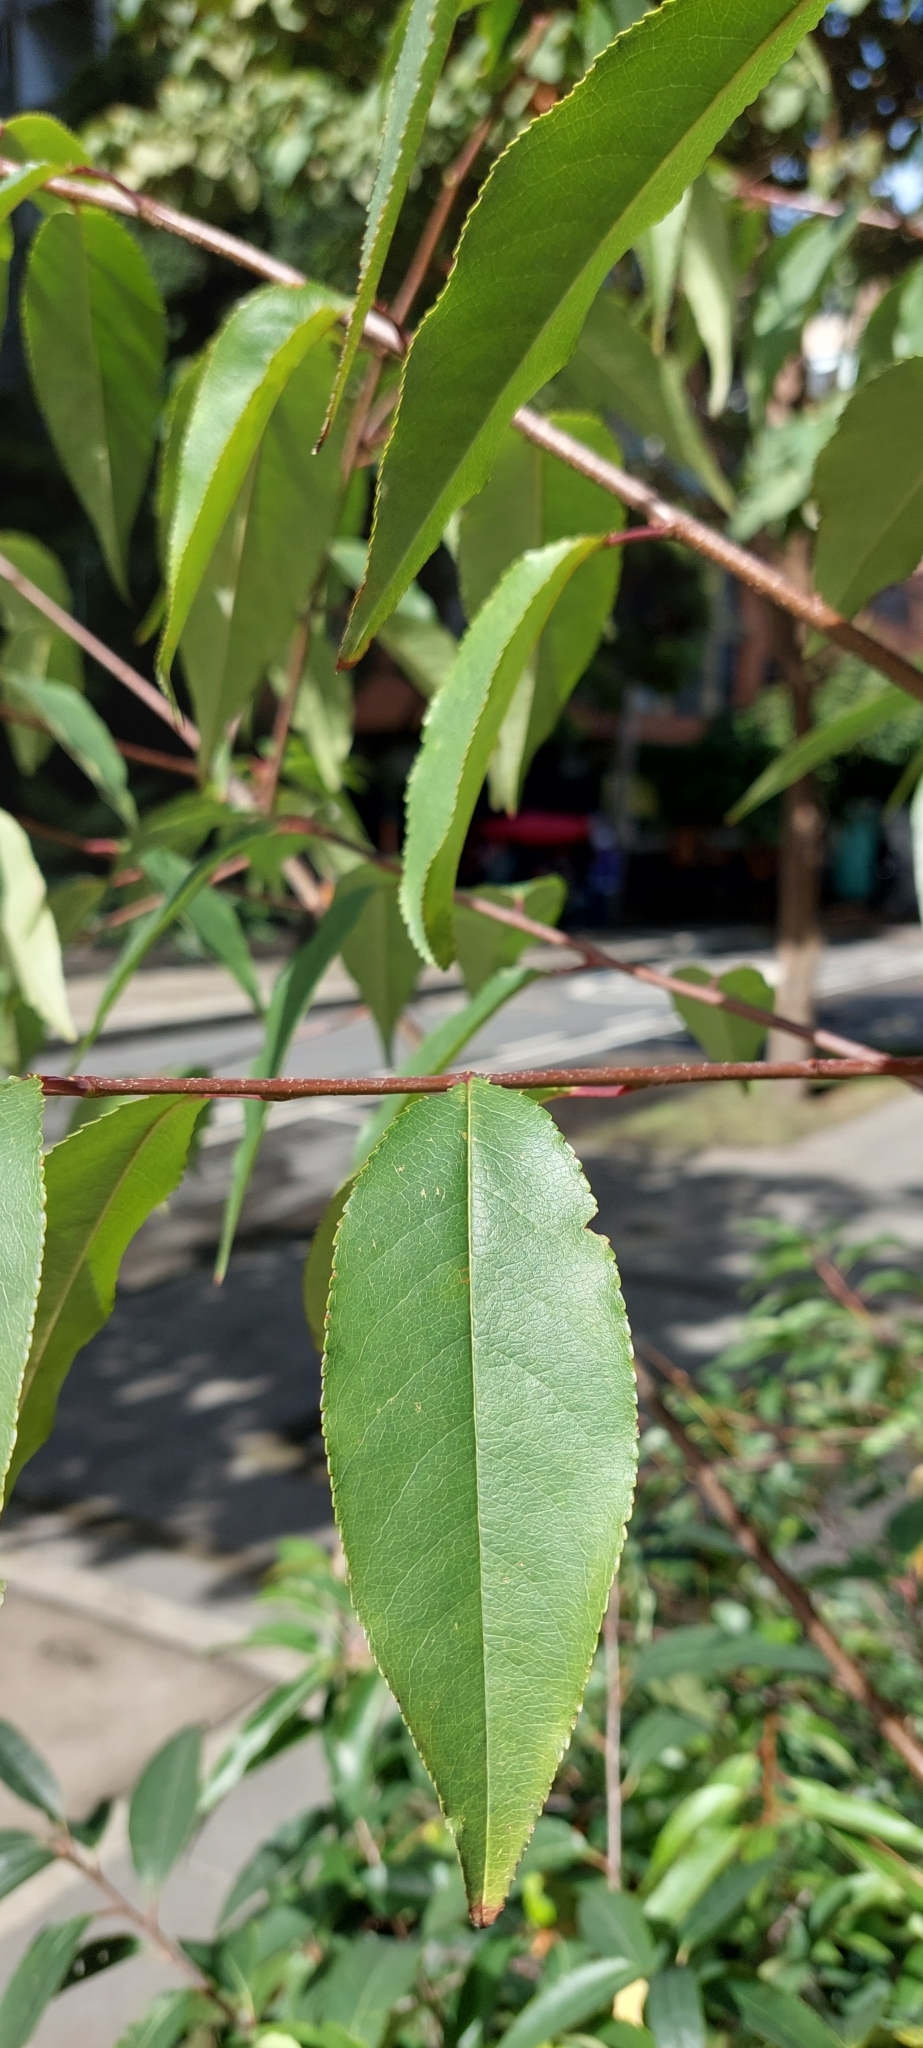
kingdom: Plantae
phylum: Tracheophyta
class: Magnoliopsida
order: Rosales
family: Rosaceae
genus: Prunus
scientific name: Prunus serotina
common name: Black cherry
